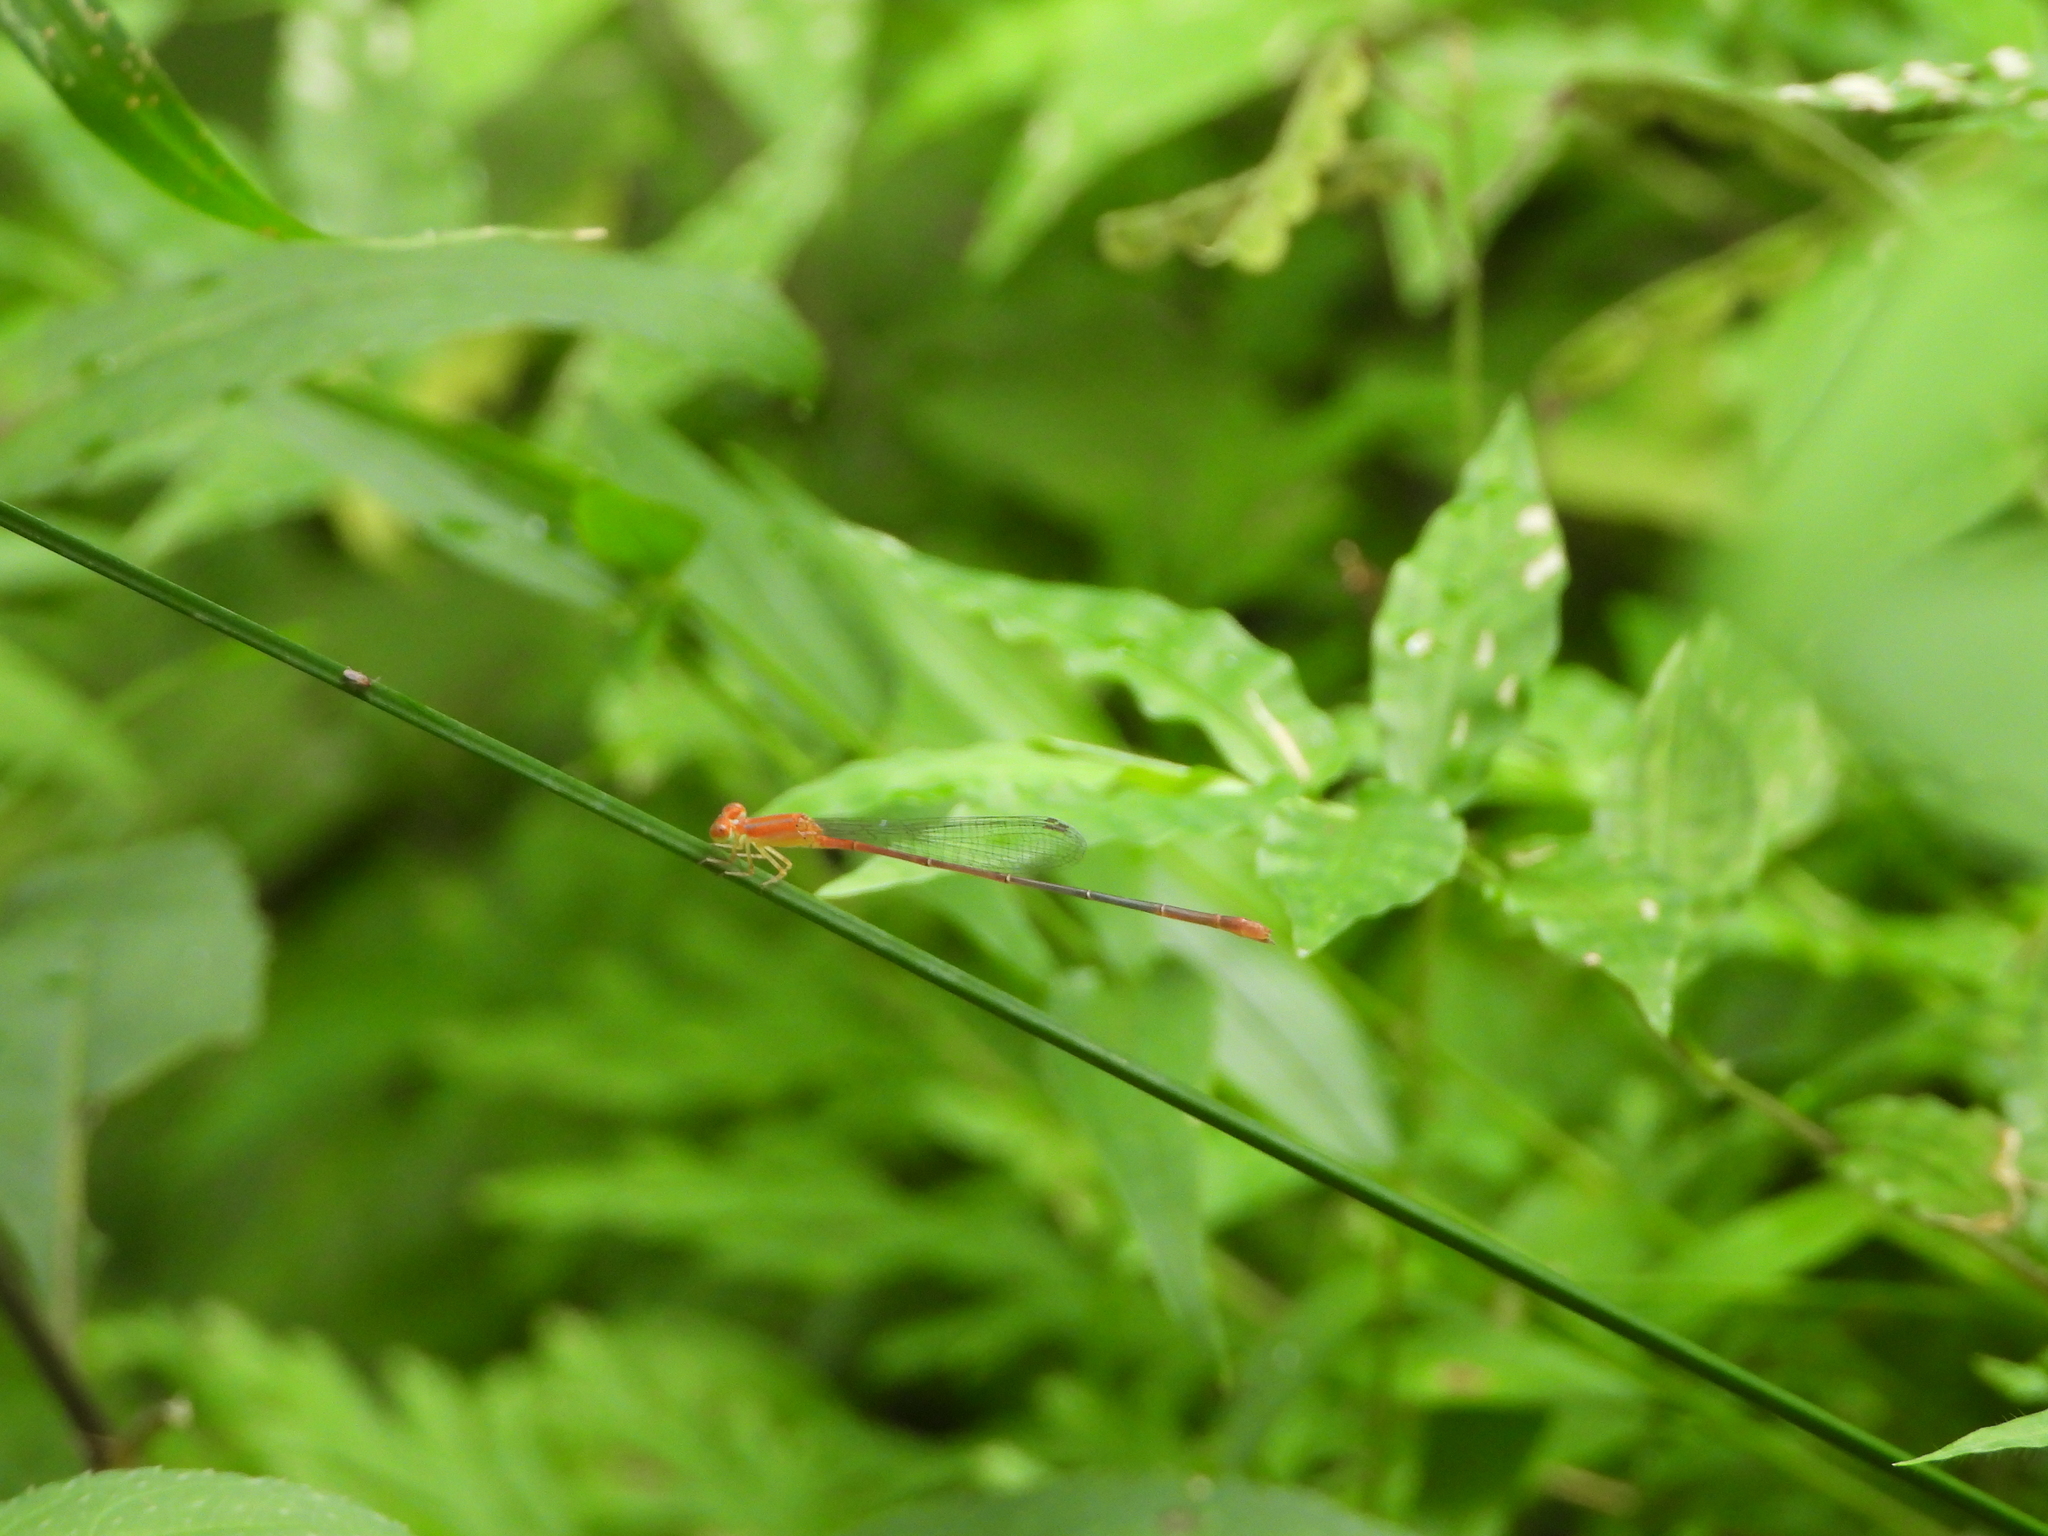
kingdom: Animalia
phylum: Arthropoda
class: Insecta
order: Odonata
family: Coenagrionidae
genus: Leptobasis
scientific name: Leptobasis vacillans
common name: Red-tipped swampdamsel
